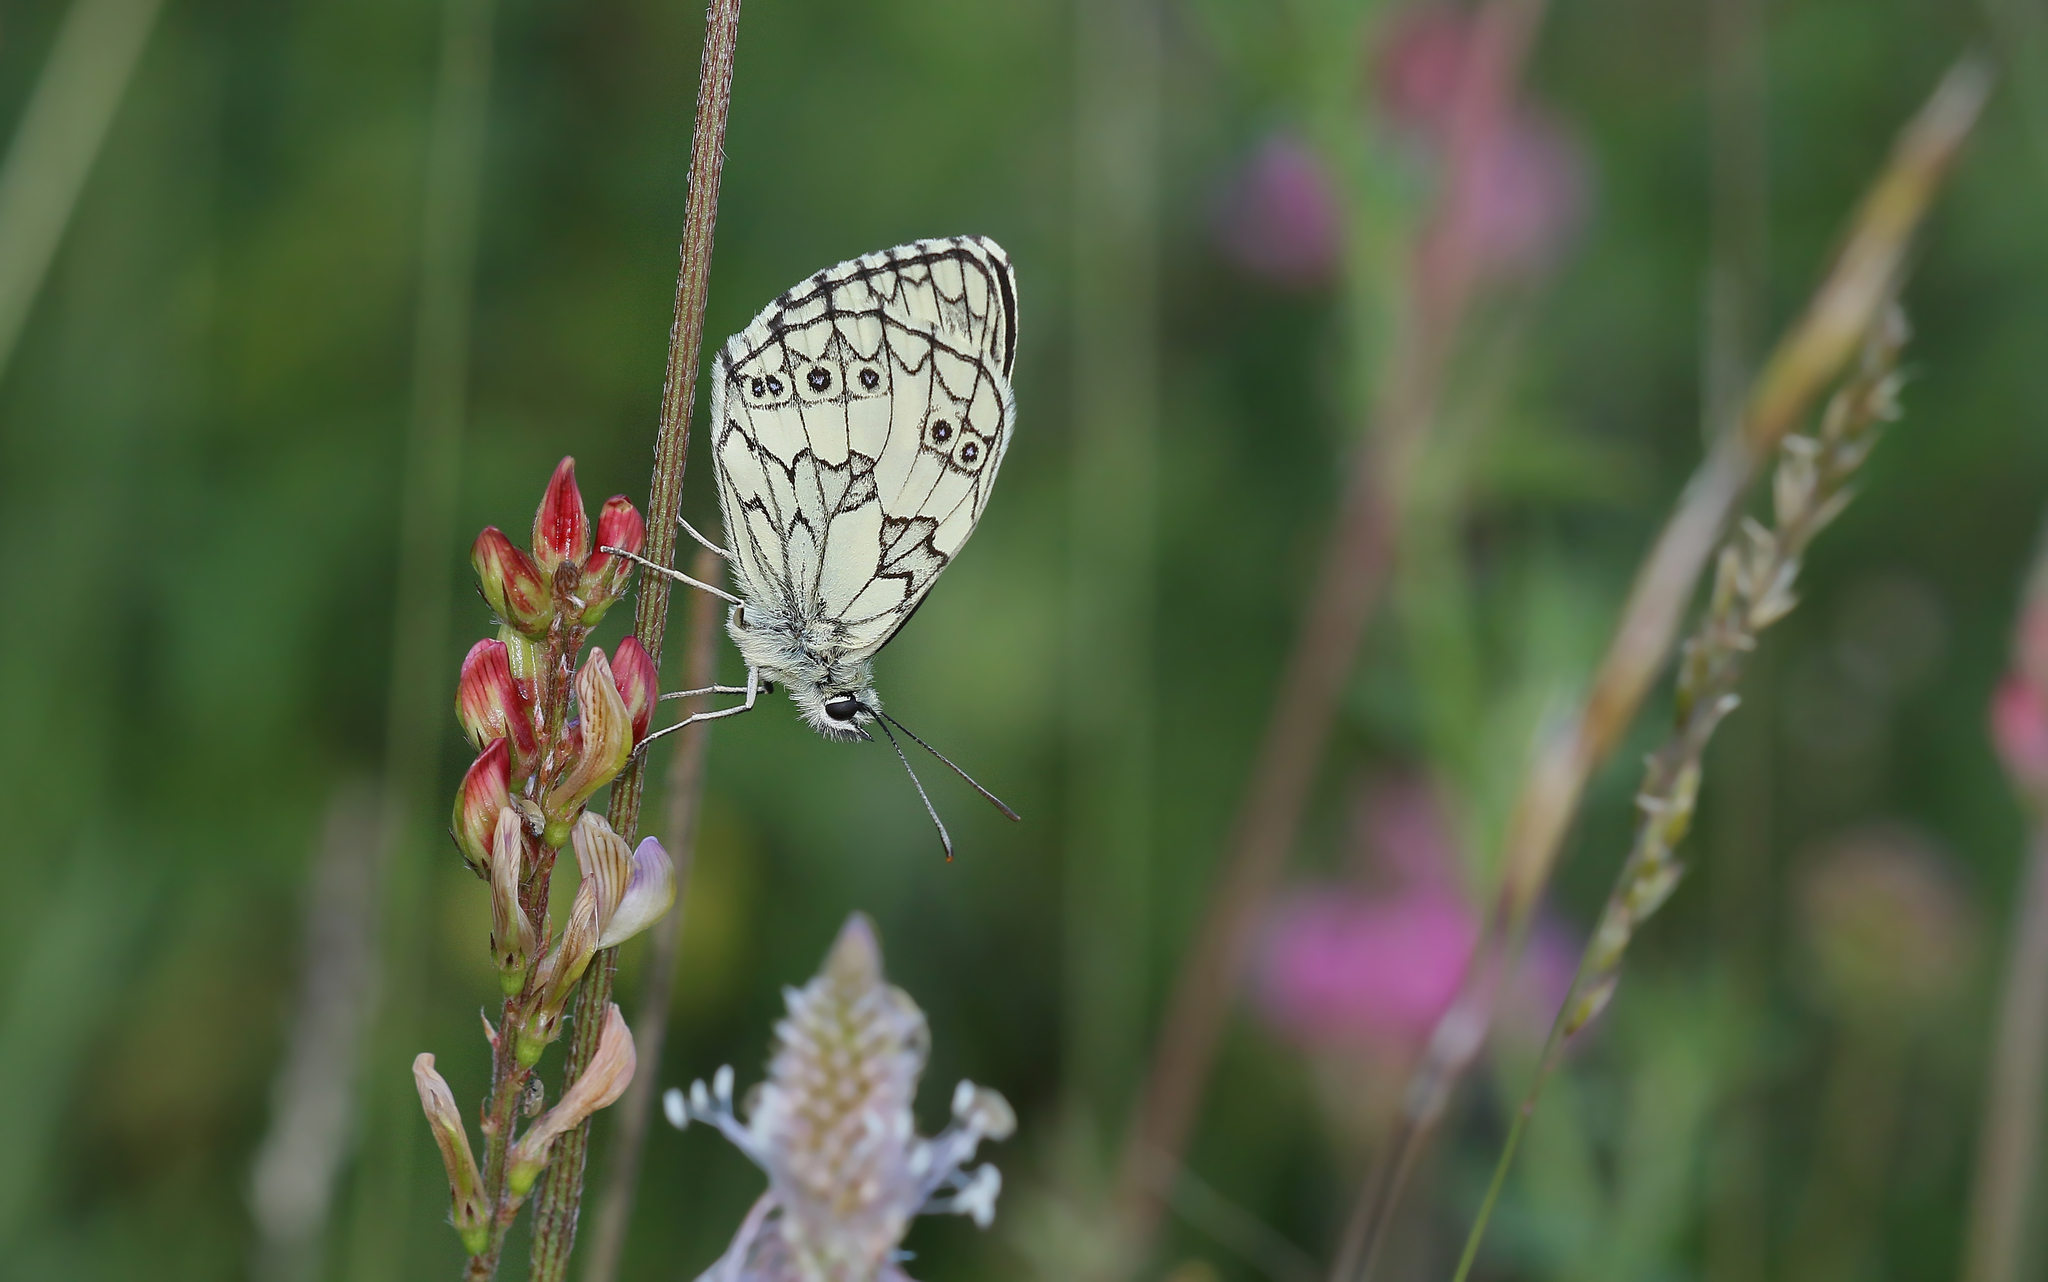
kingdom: Animalia
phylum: Arthropoda
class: Insecta
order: Lepidoptera
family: Nymphalidae
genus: Melanargia
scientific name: Melanargia galathea
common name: Marbled white
